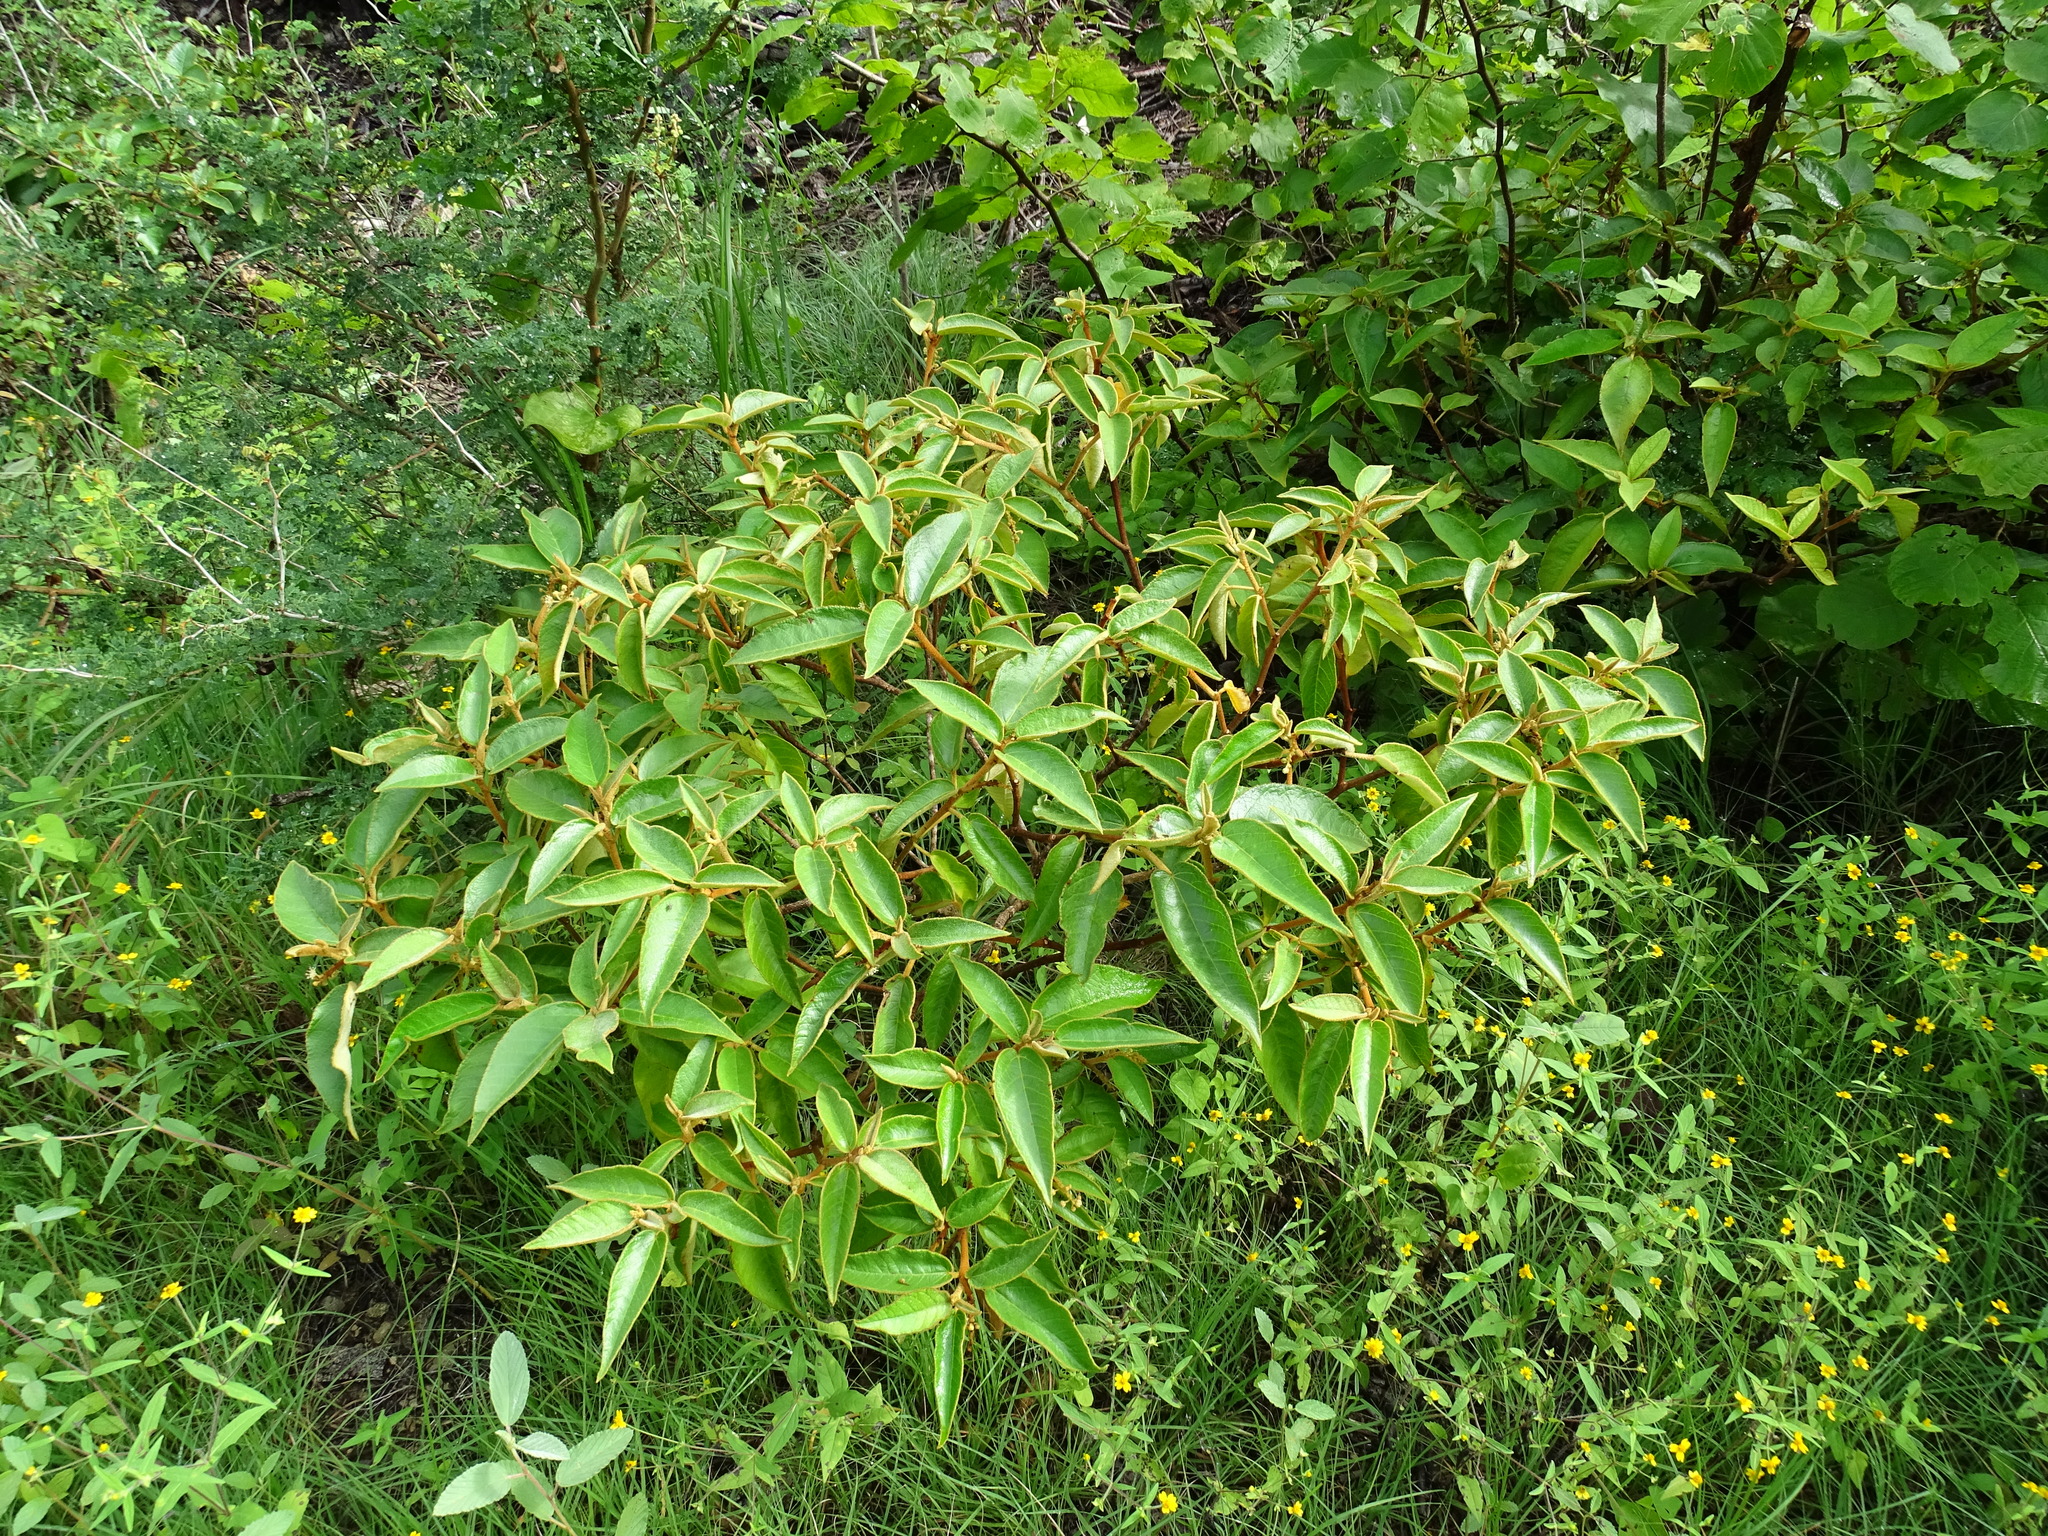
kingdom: Plantae
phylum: Tracheophyta
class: Magnoliopsida
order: Malpighiales
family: Euphorbiaceae
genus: Croton
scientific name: Croton peraeruginosus
